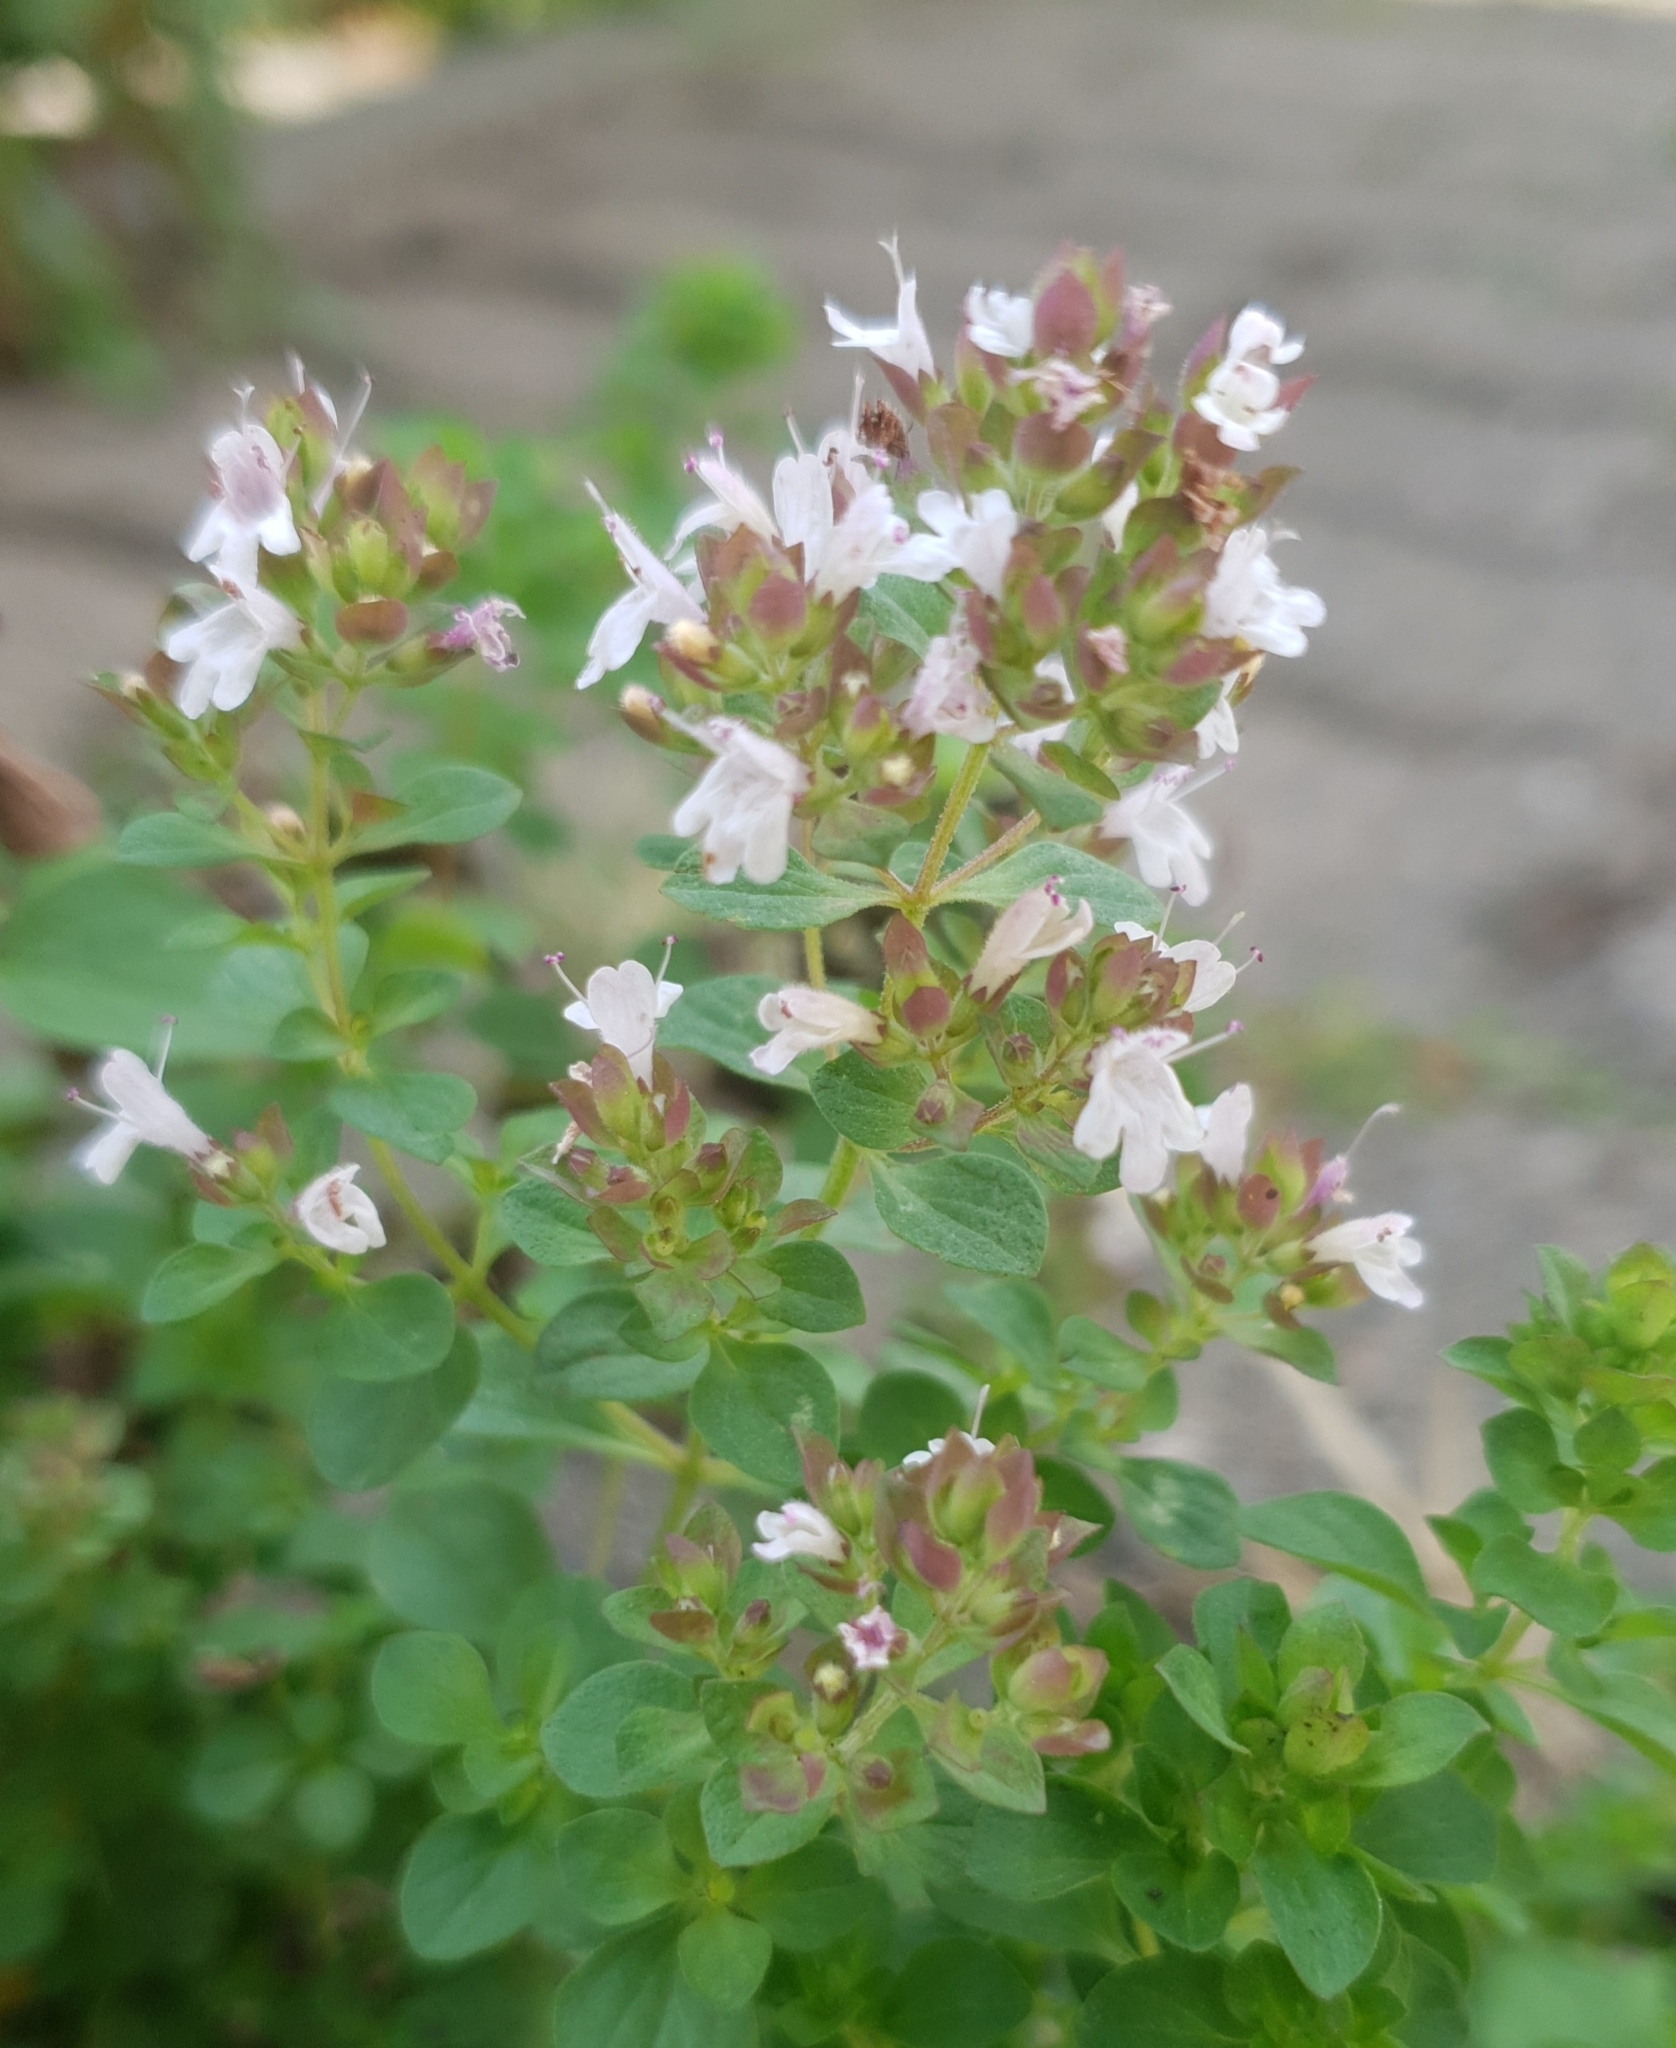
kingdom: Plantae
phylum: Tracheophyta
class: Magnoliopsida
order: Lamiales
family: Lamiaceae
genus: Origanum
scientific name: Origanum vulgare
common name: Wild marjoram
